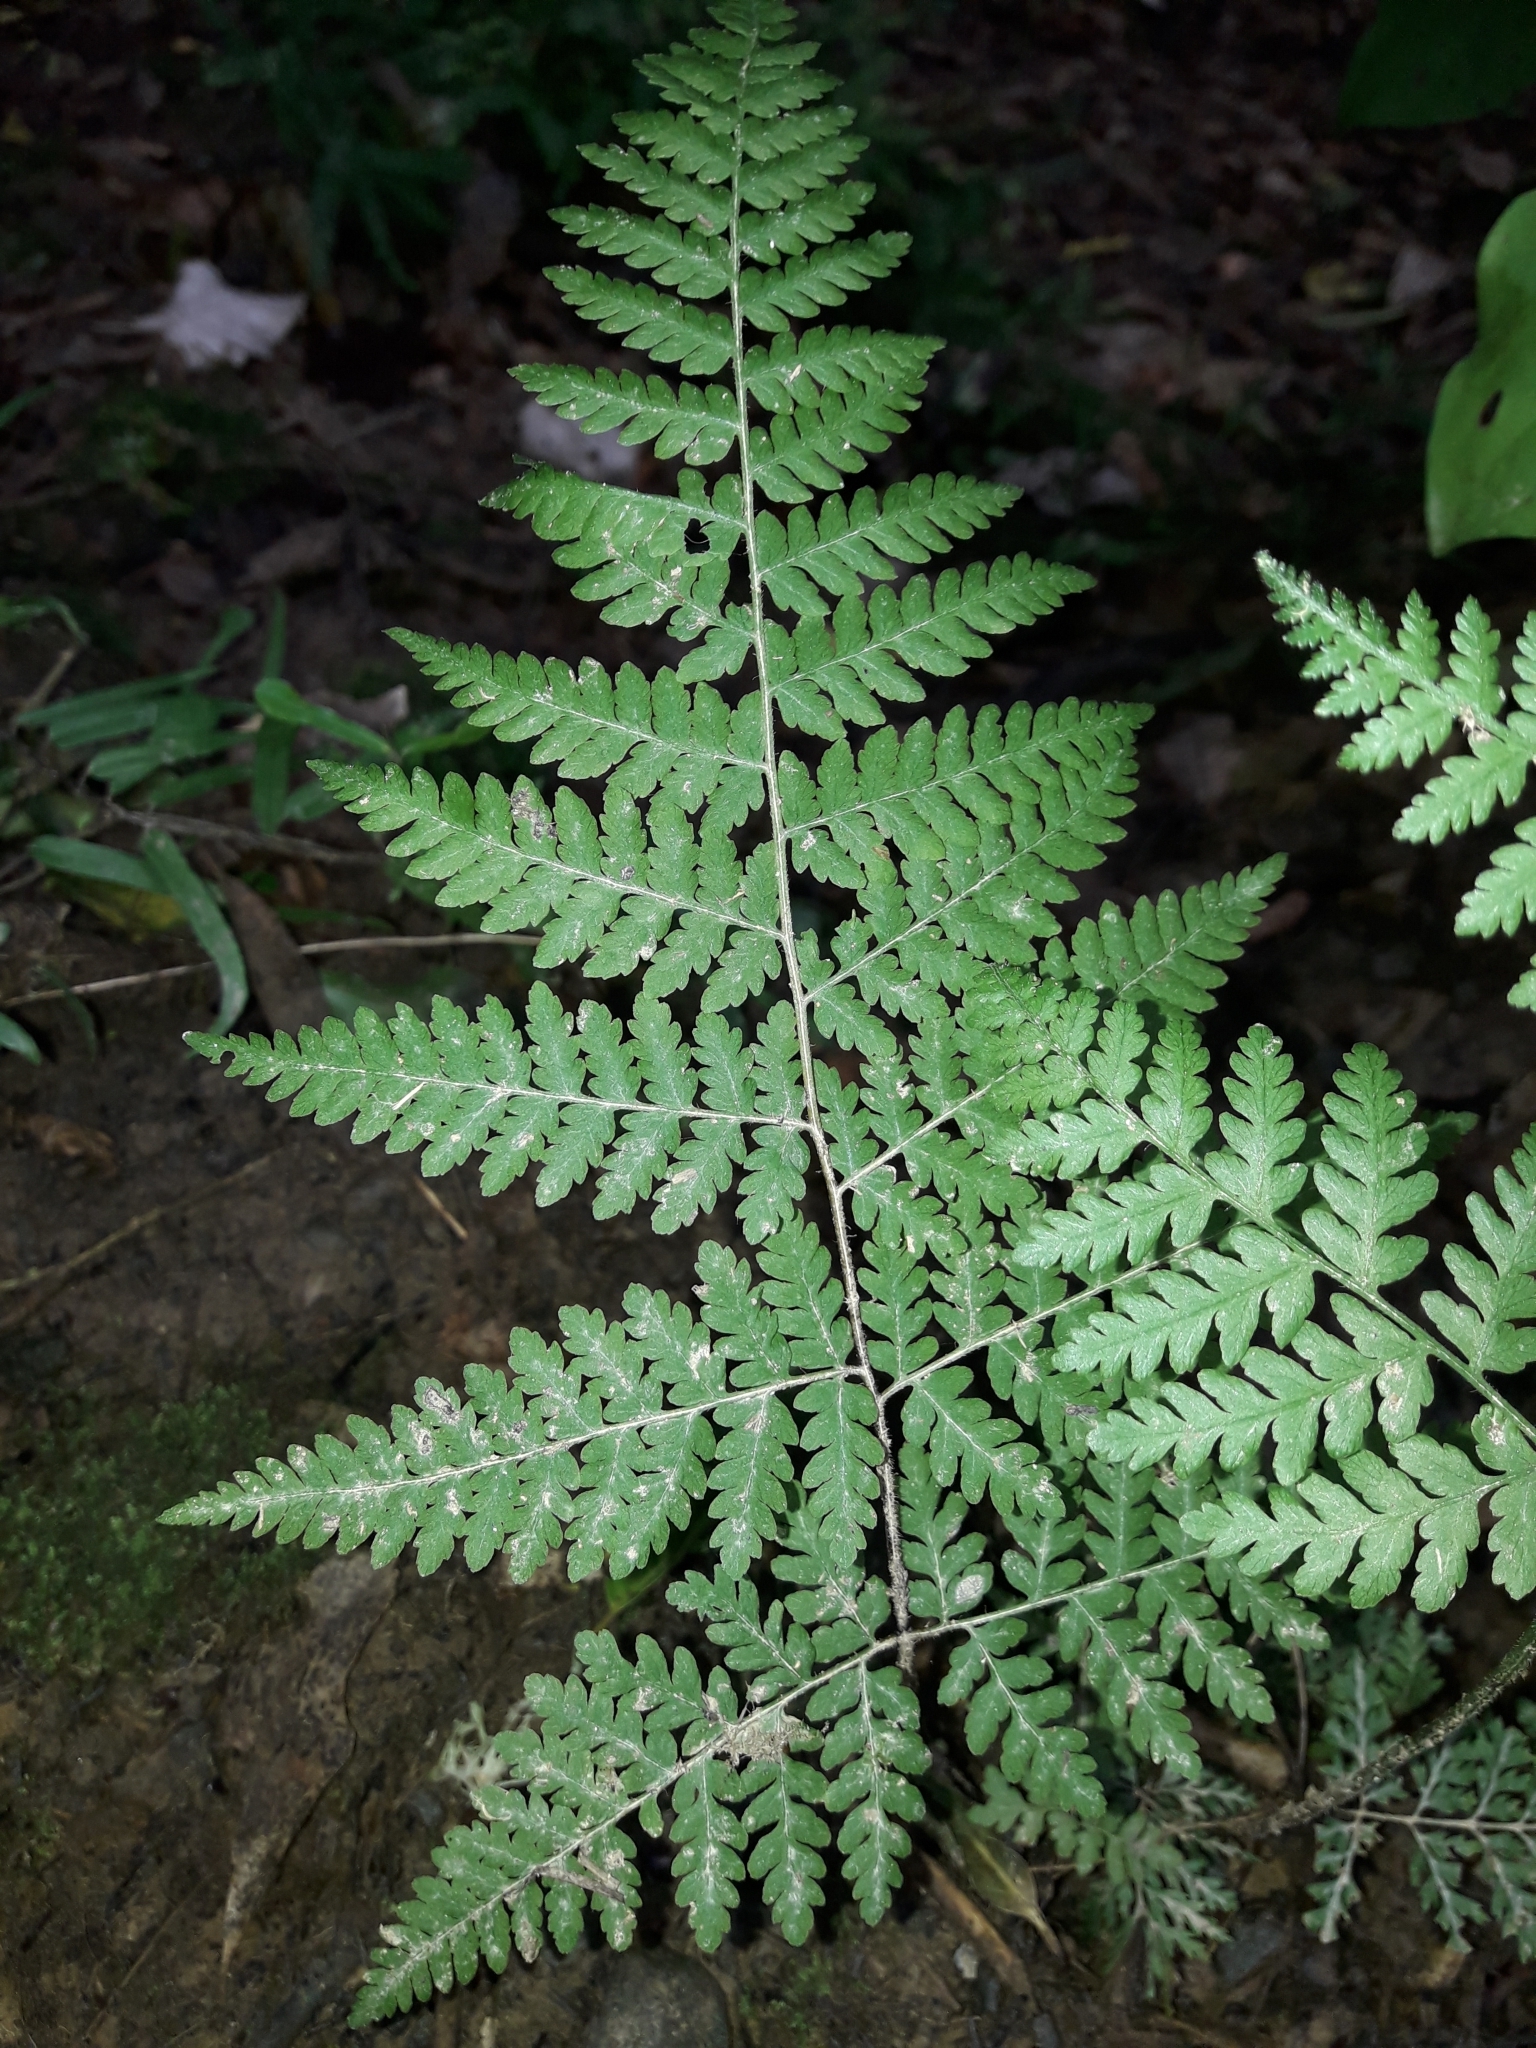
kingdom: Plantae
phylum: Tracheophyta
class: Polypodiopsida
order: Polypodiales
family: Athyriaceae
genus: Diplazium
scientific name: Diplazium australe
